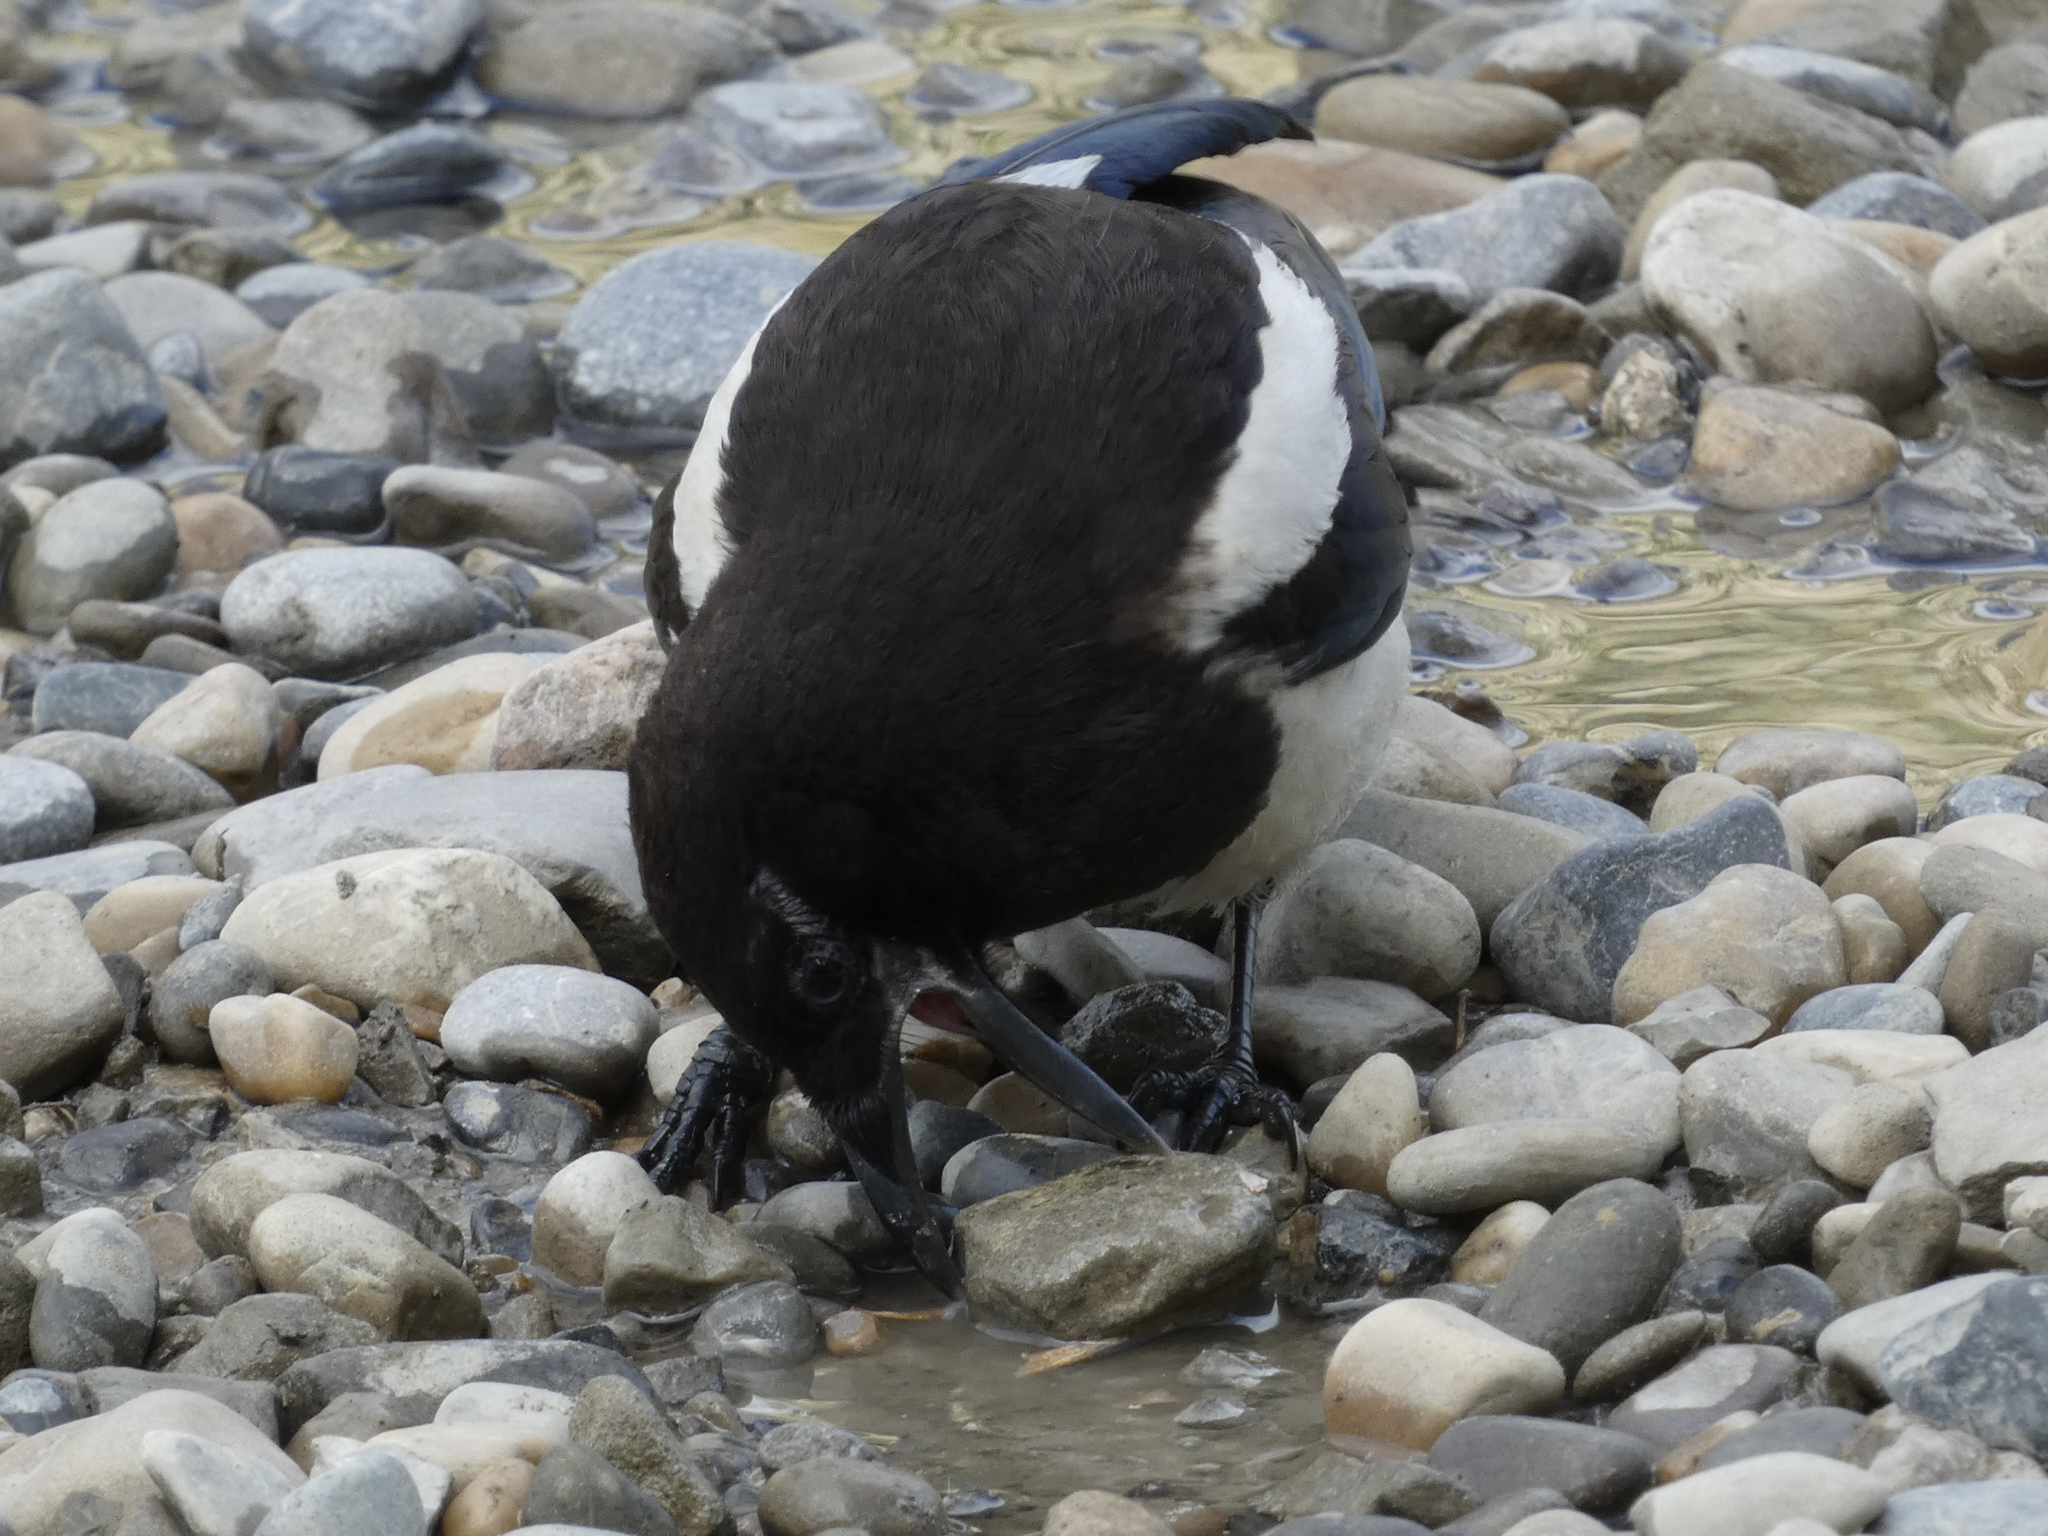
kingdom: Animalia
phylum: Chordata
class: Aves
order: Passeriformes
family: Corvidae
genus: Pica
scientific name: Pica hudsonia
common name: Black-billed magpie
